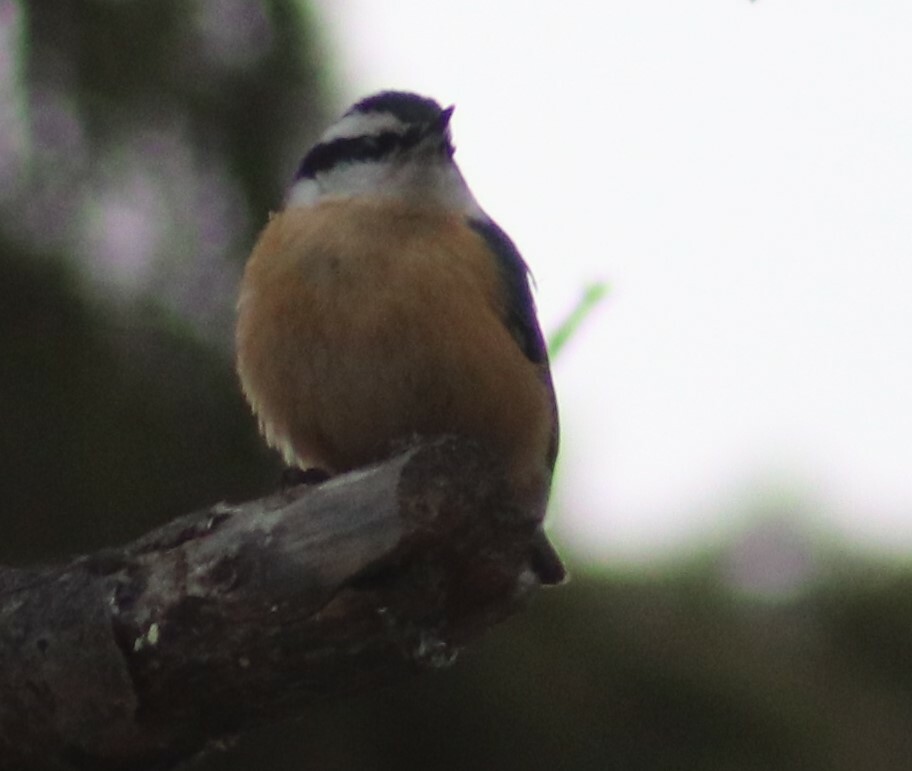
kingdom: Animalia
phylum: Chordata
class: Aves
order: Passeriformes
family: Sittidae
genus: Sitta
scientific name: Sitta canadensis
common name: Red-breasted nuthatch
